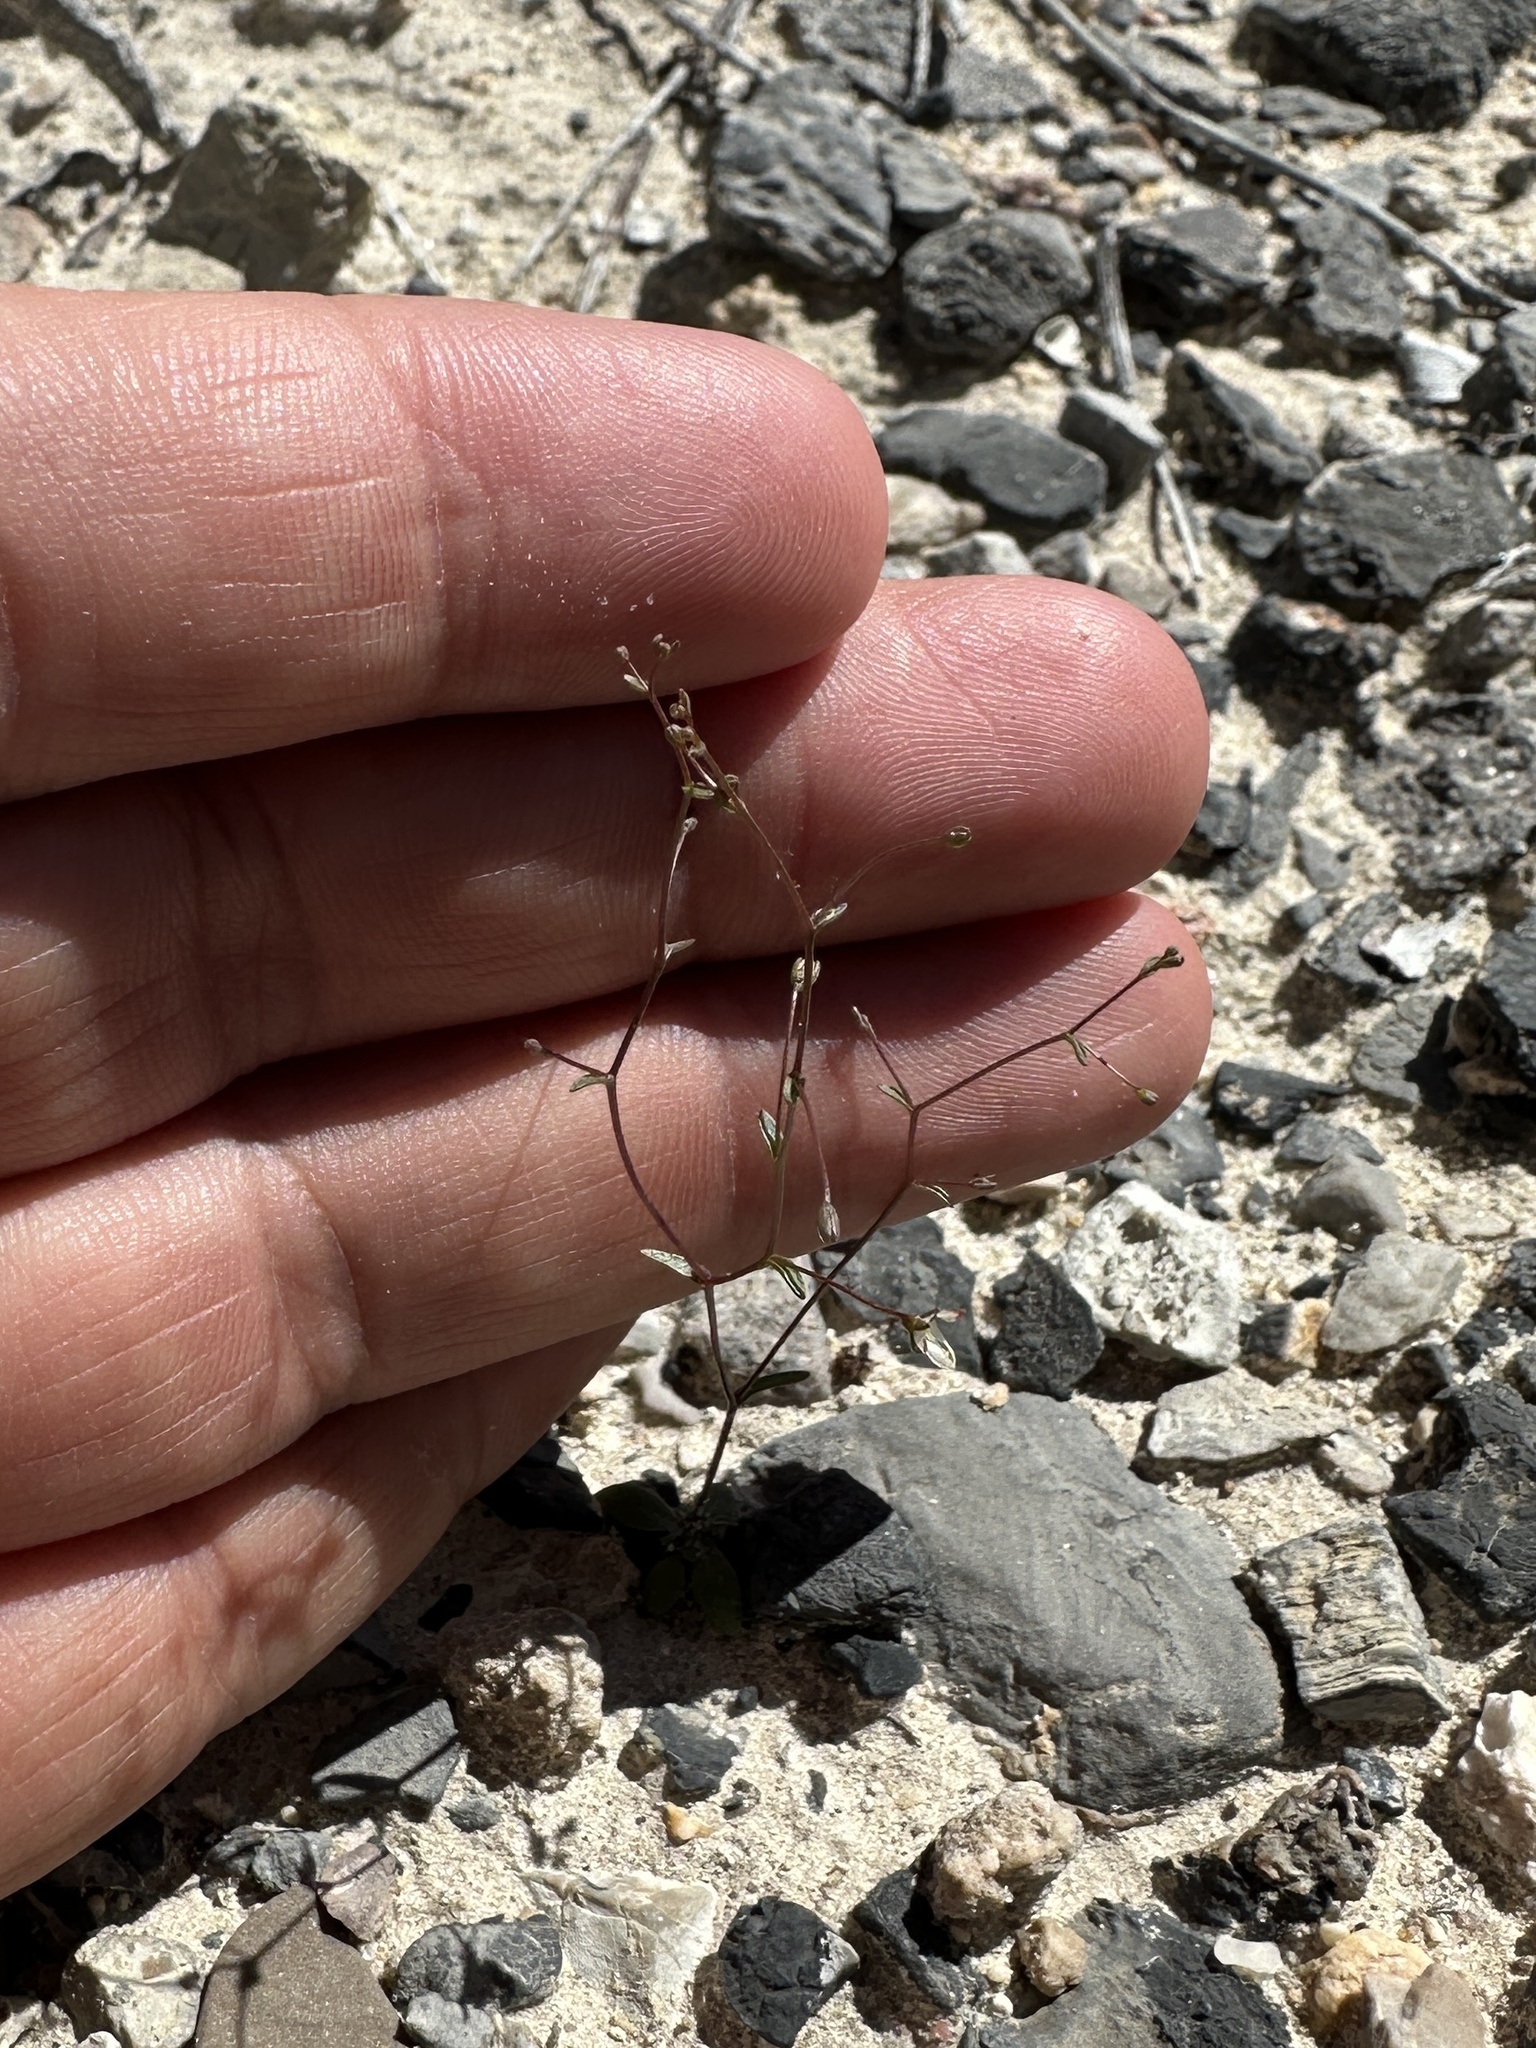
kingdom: Plantae
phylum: Tracheophyta
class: Magnoliopsida
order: Asterales
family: Campanulaceae
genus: Nemacladus
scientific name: Nemacladus morefieldii
